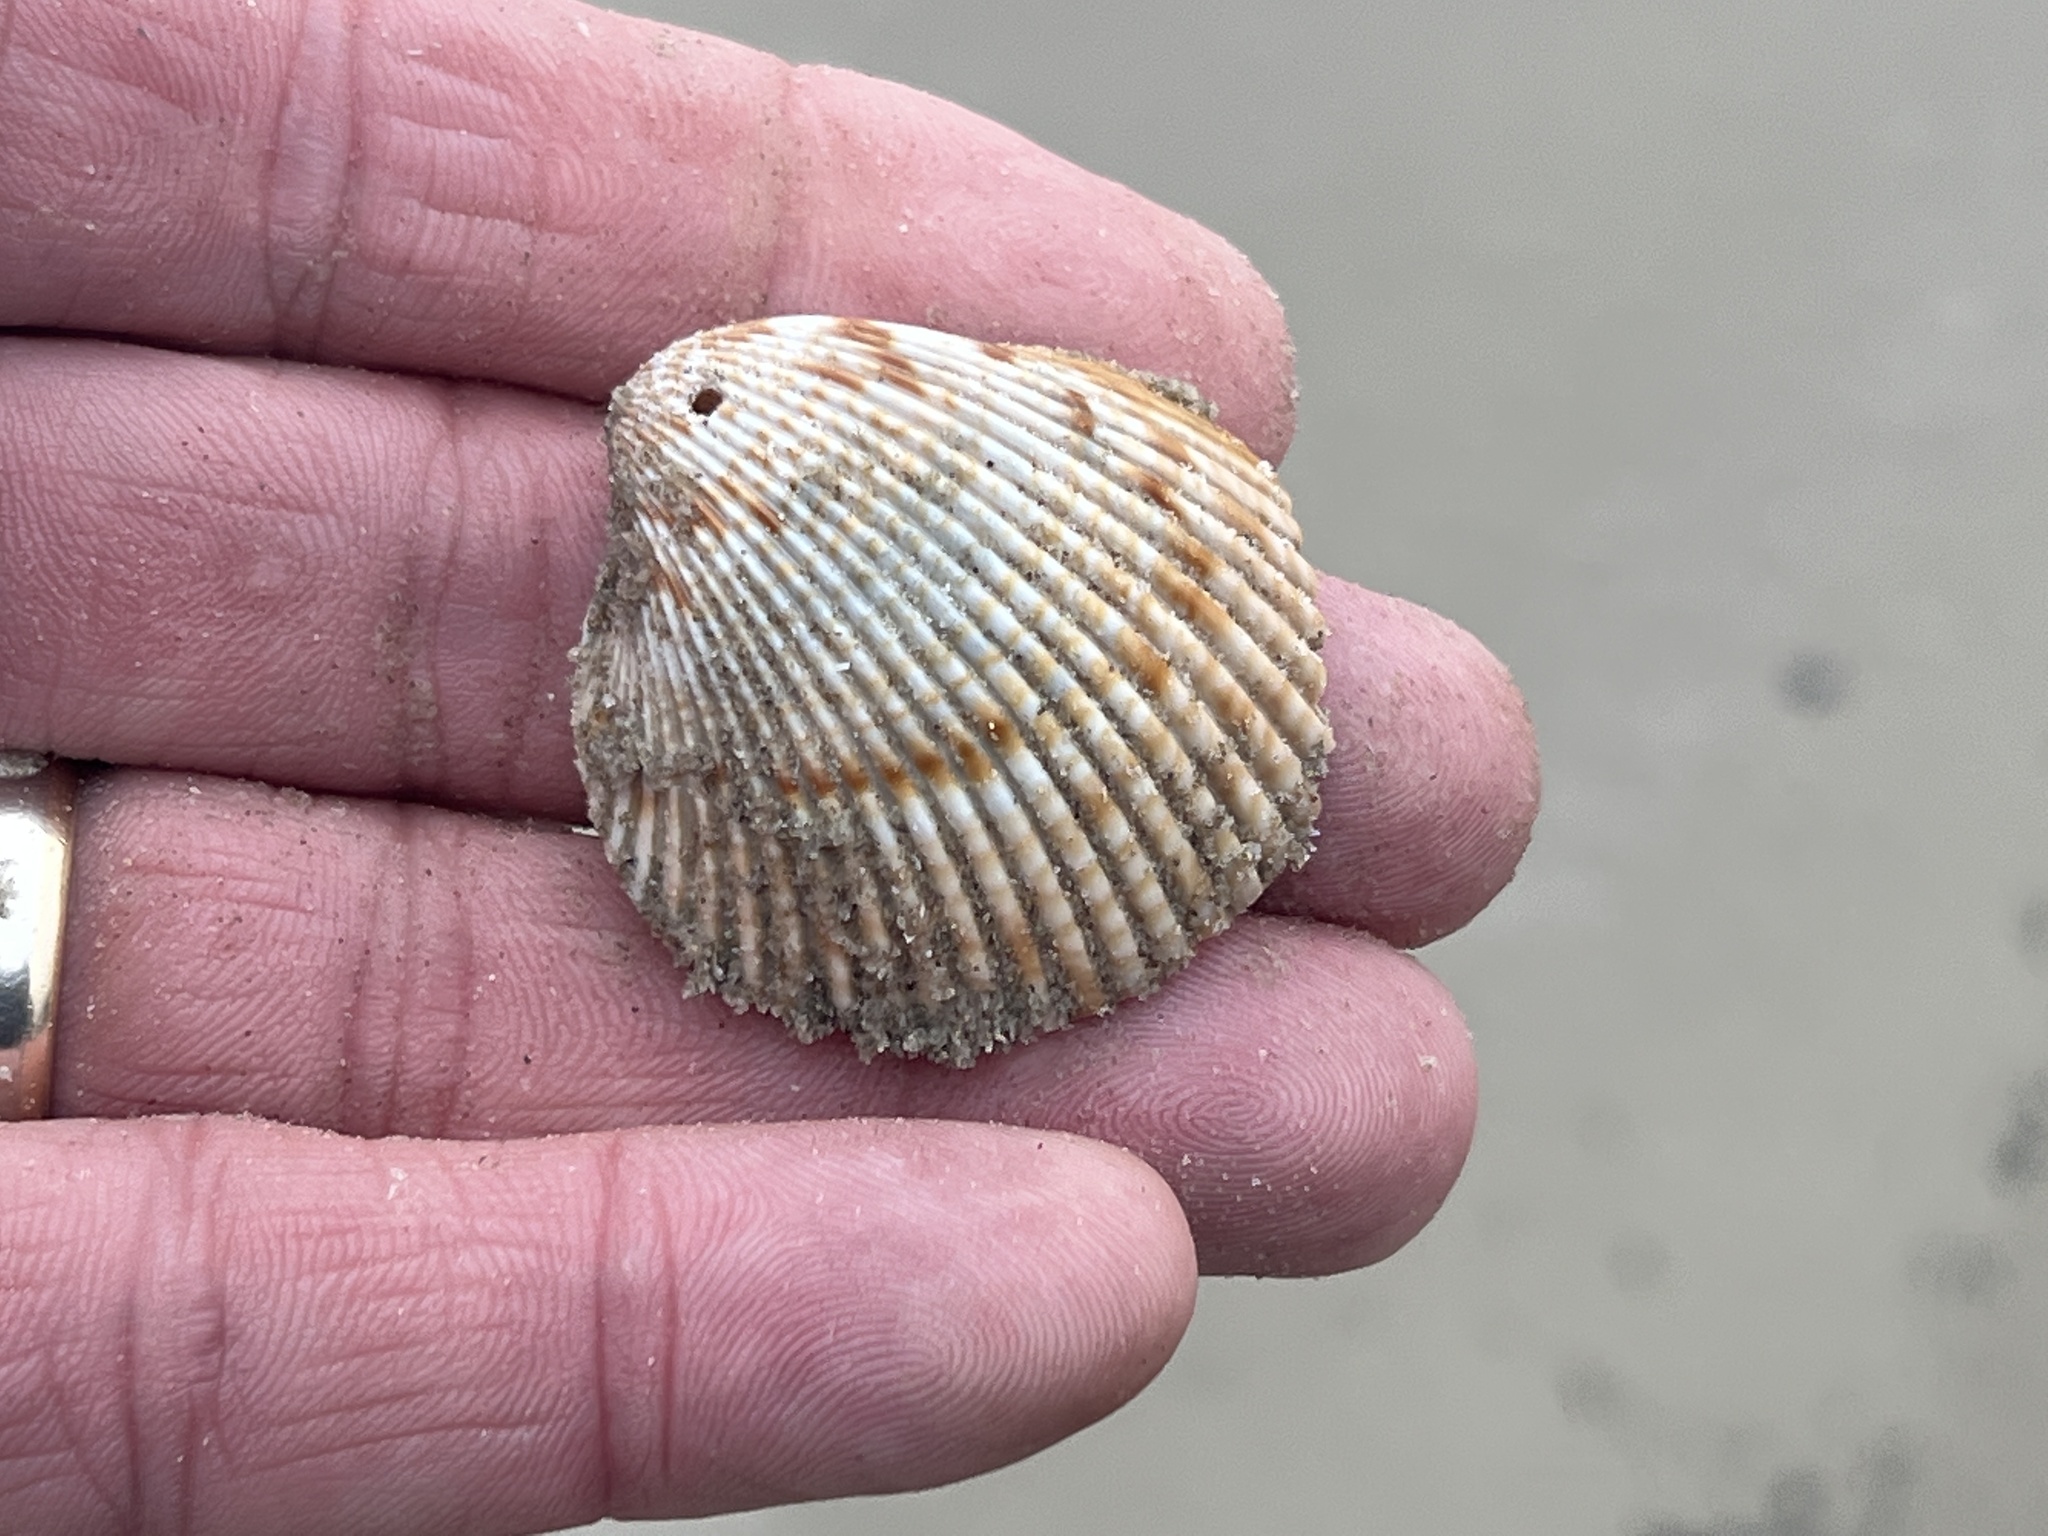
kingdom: Animalia
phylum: Mollusca
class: Bivalvia
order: Cardiida
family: Cardiidae
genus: Dinocardium
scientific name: Dinocardium robustum
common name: Atlantic giant cockle
